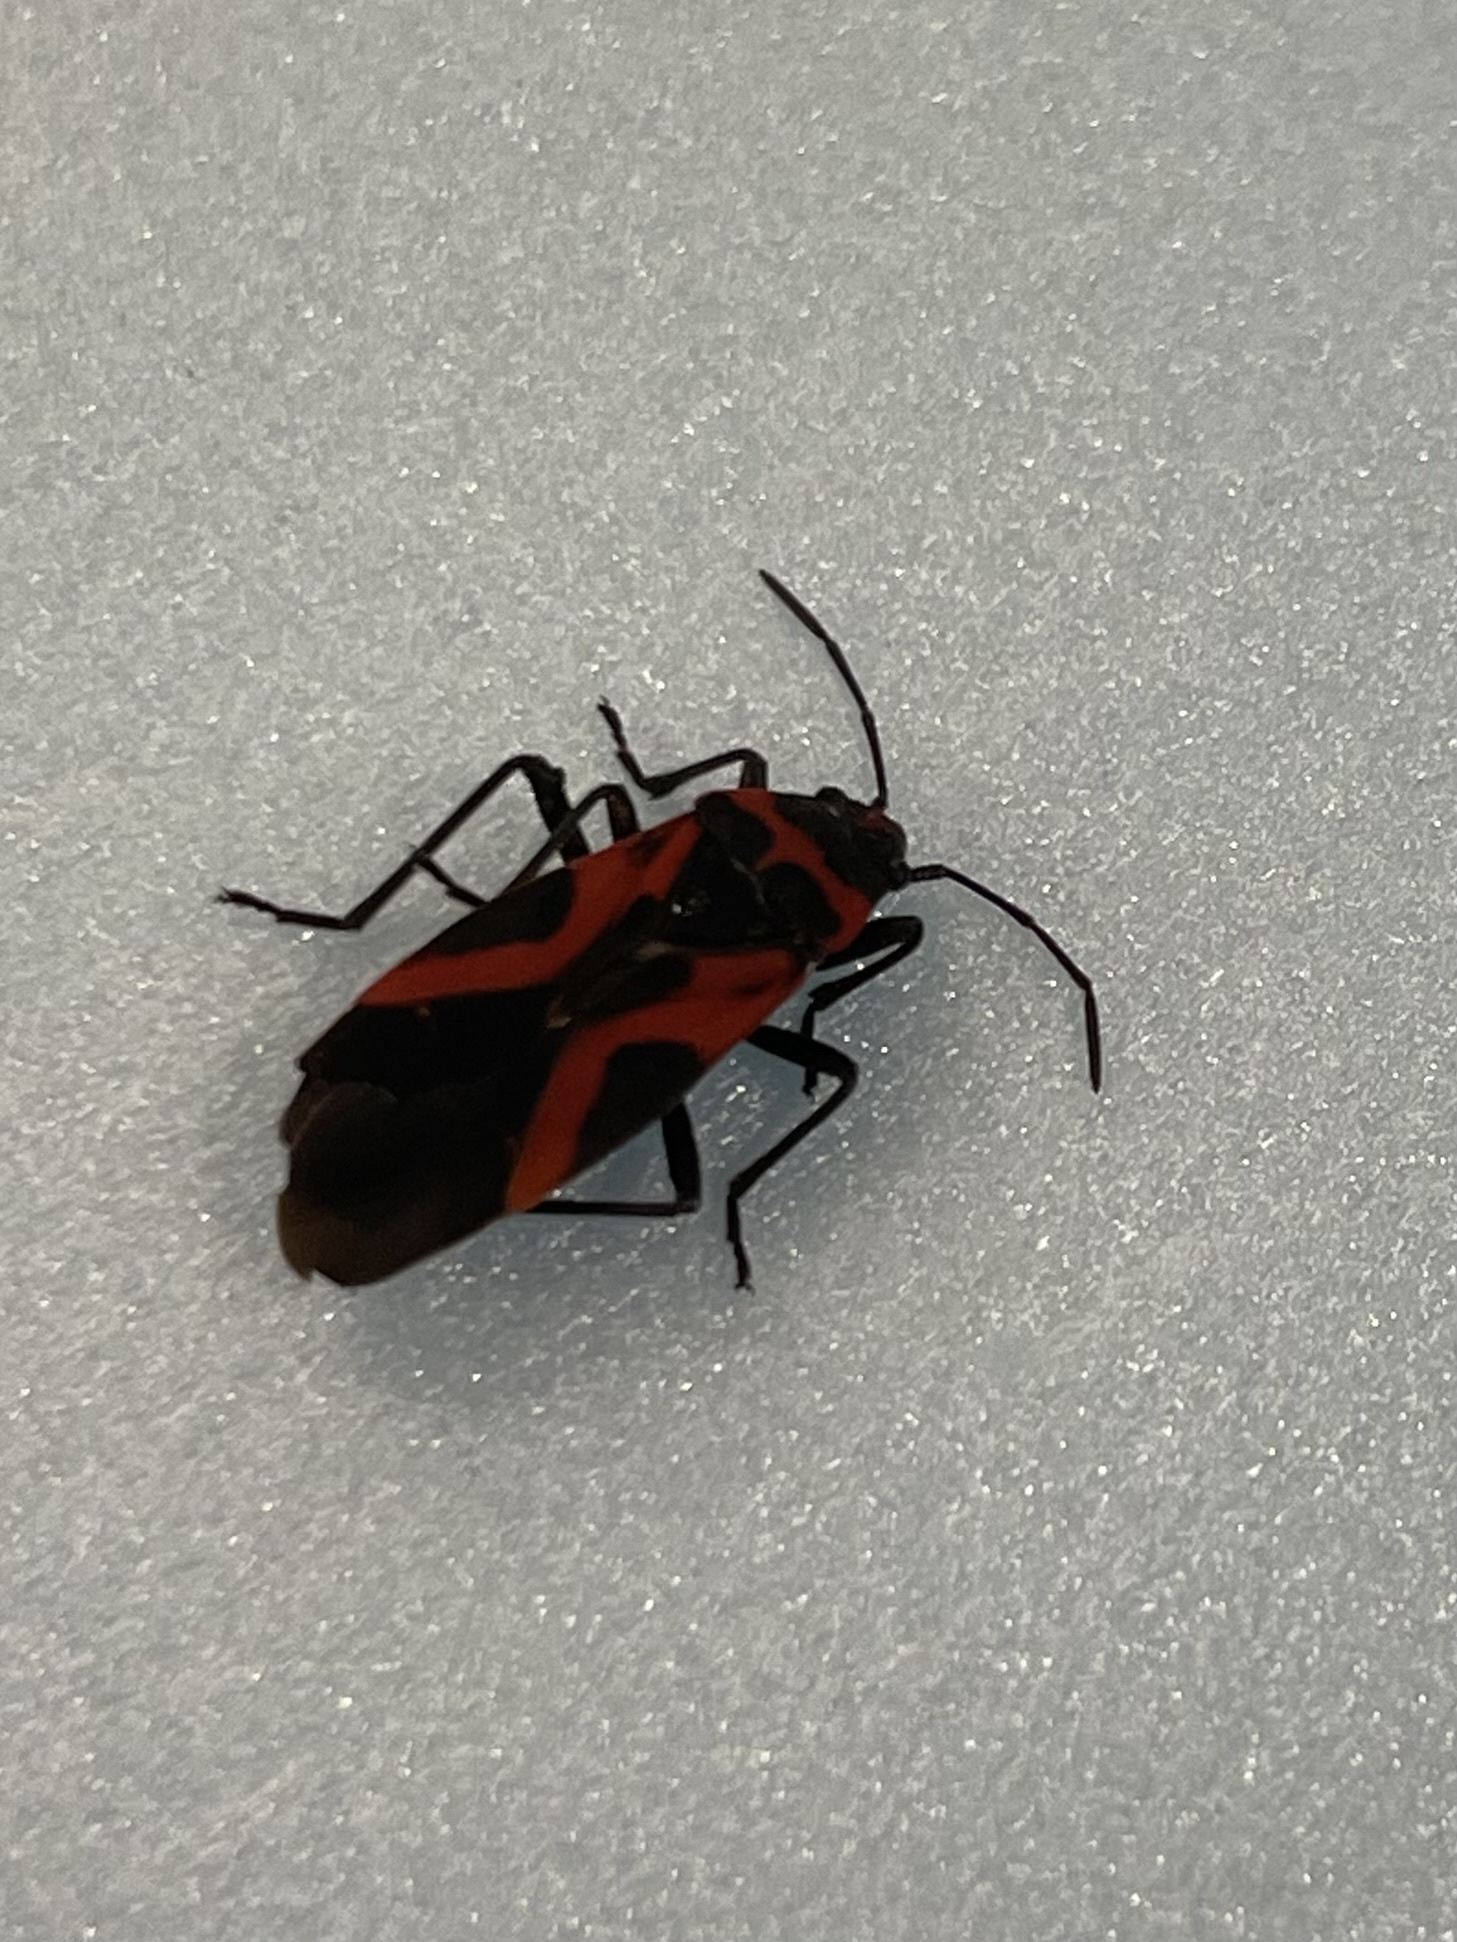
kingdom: Animalia
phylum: Arthropoda
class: Insecta
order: Hemiptera
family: Lygaeidae
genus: Lygaeus
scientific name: Lygaeus turcicus
